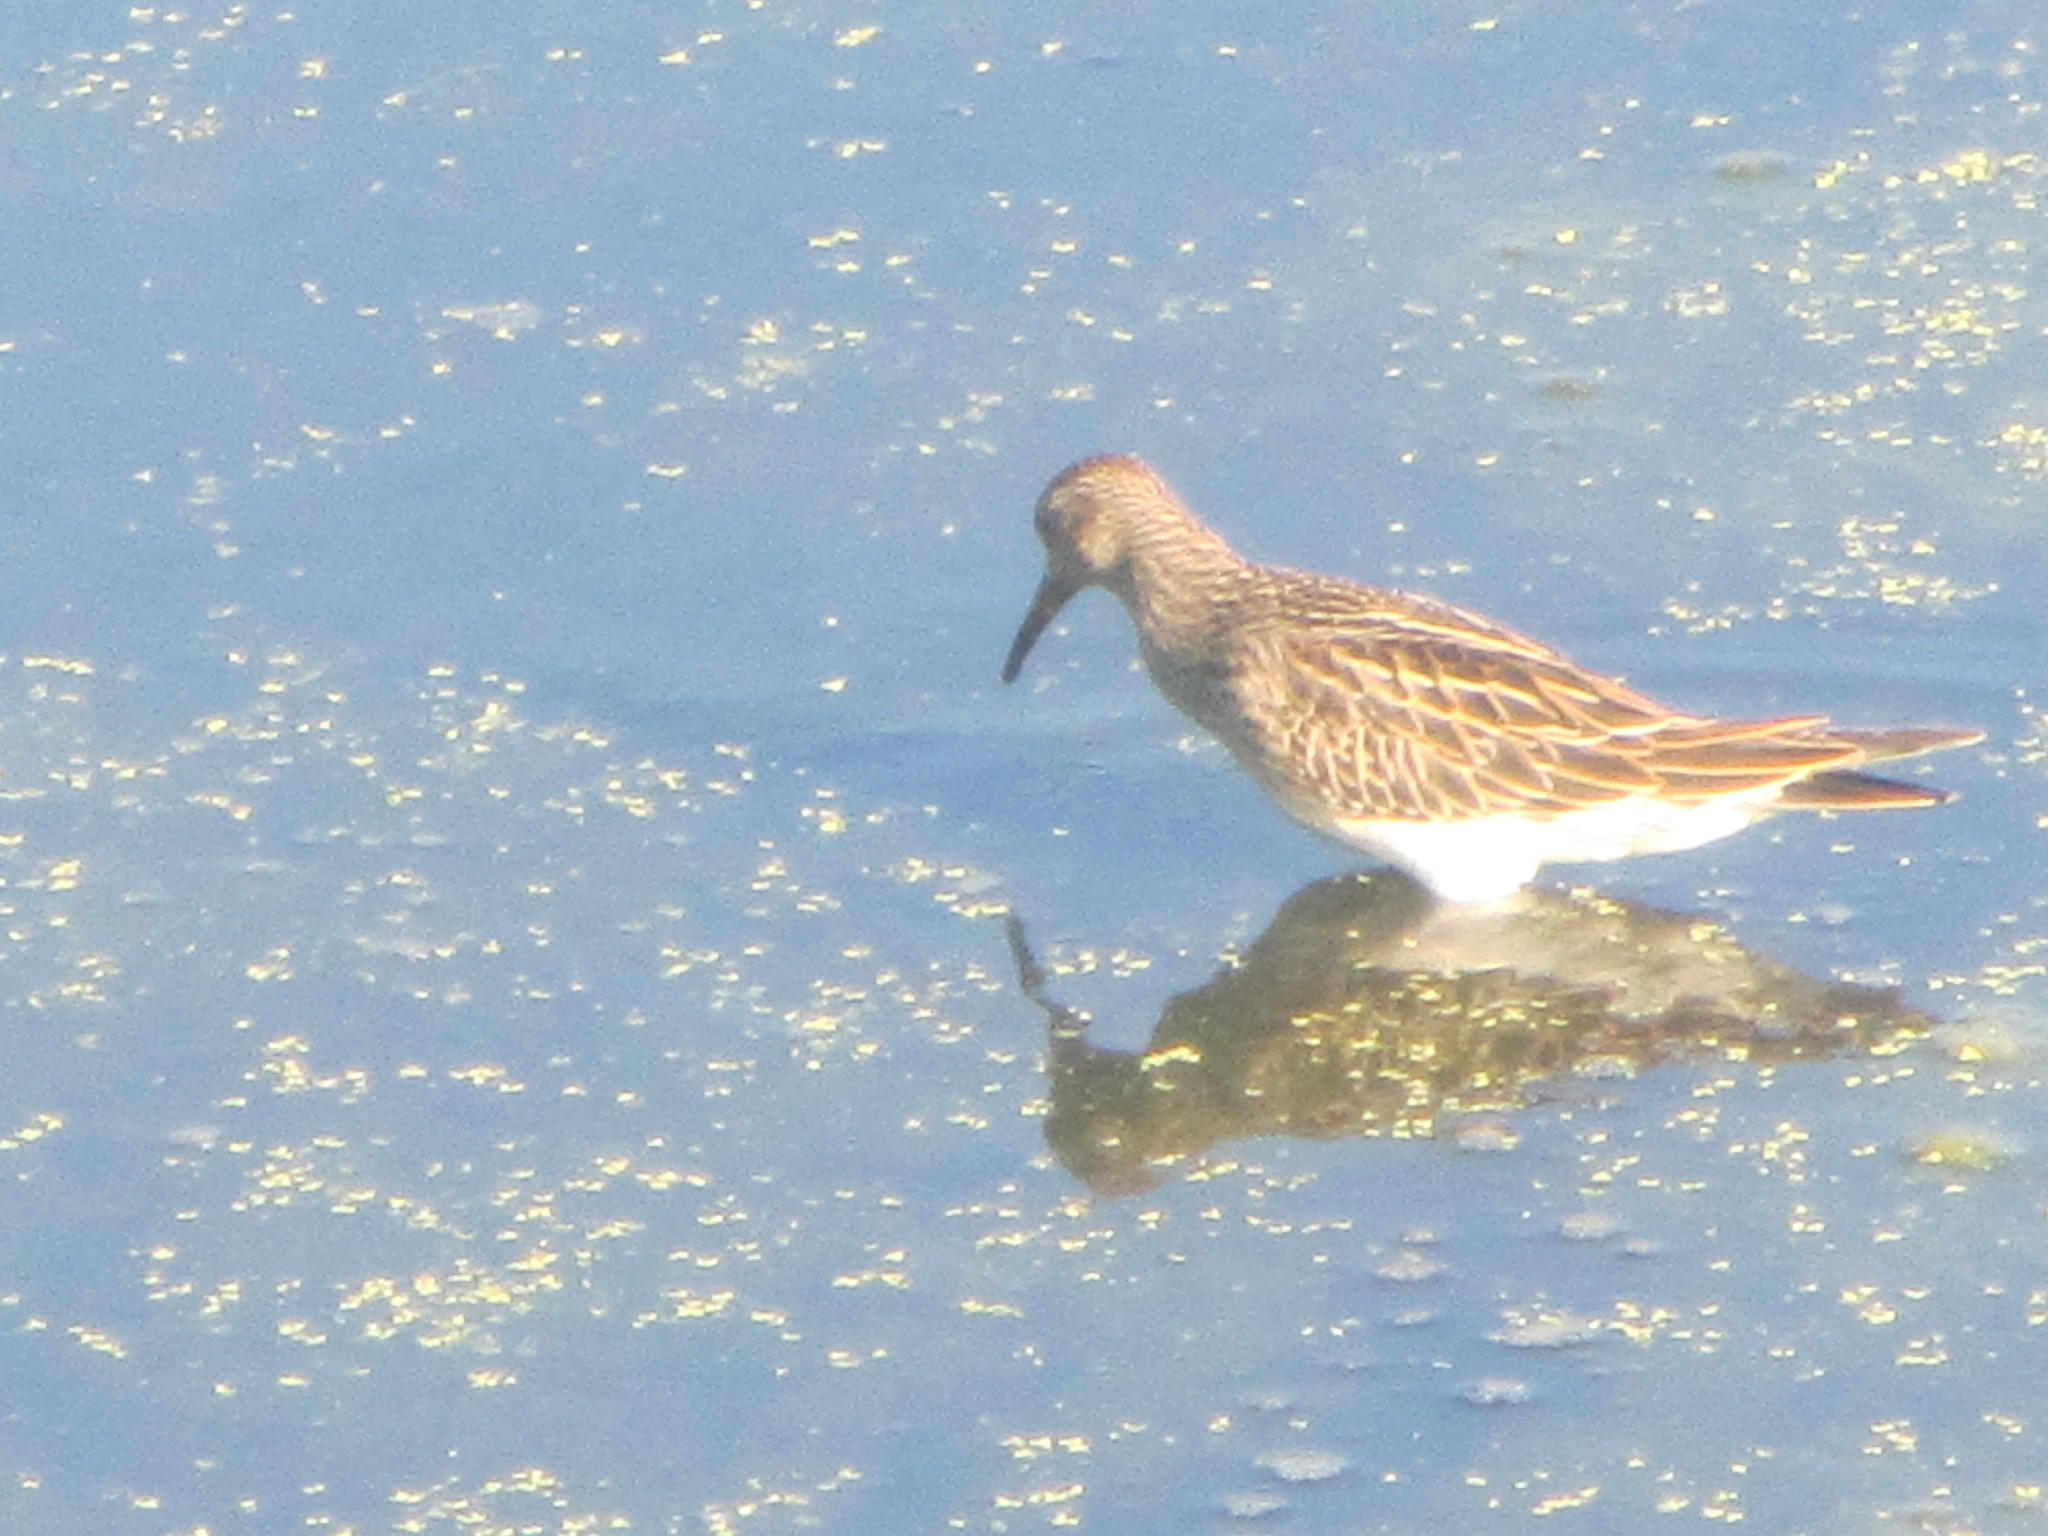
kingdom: Animalia
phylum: Chordata
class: Aves
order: Charadriiformes
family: Scolopacidae
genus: Calidris
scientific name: Calidris melanotos
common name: Pectoral sandpiper
